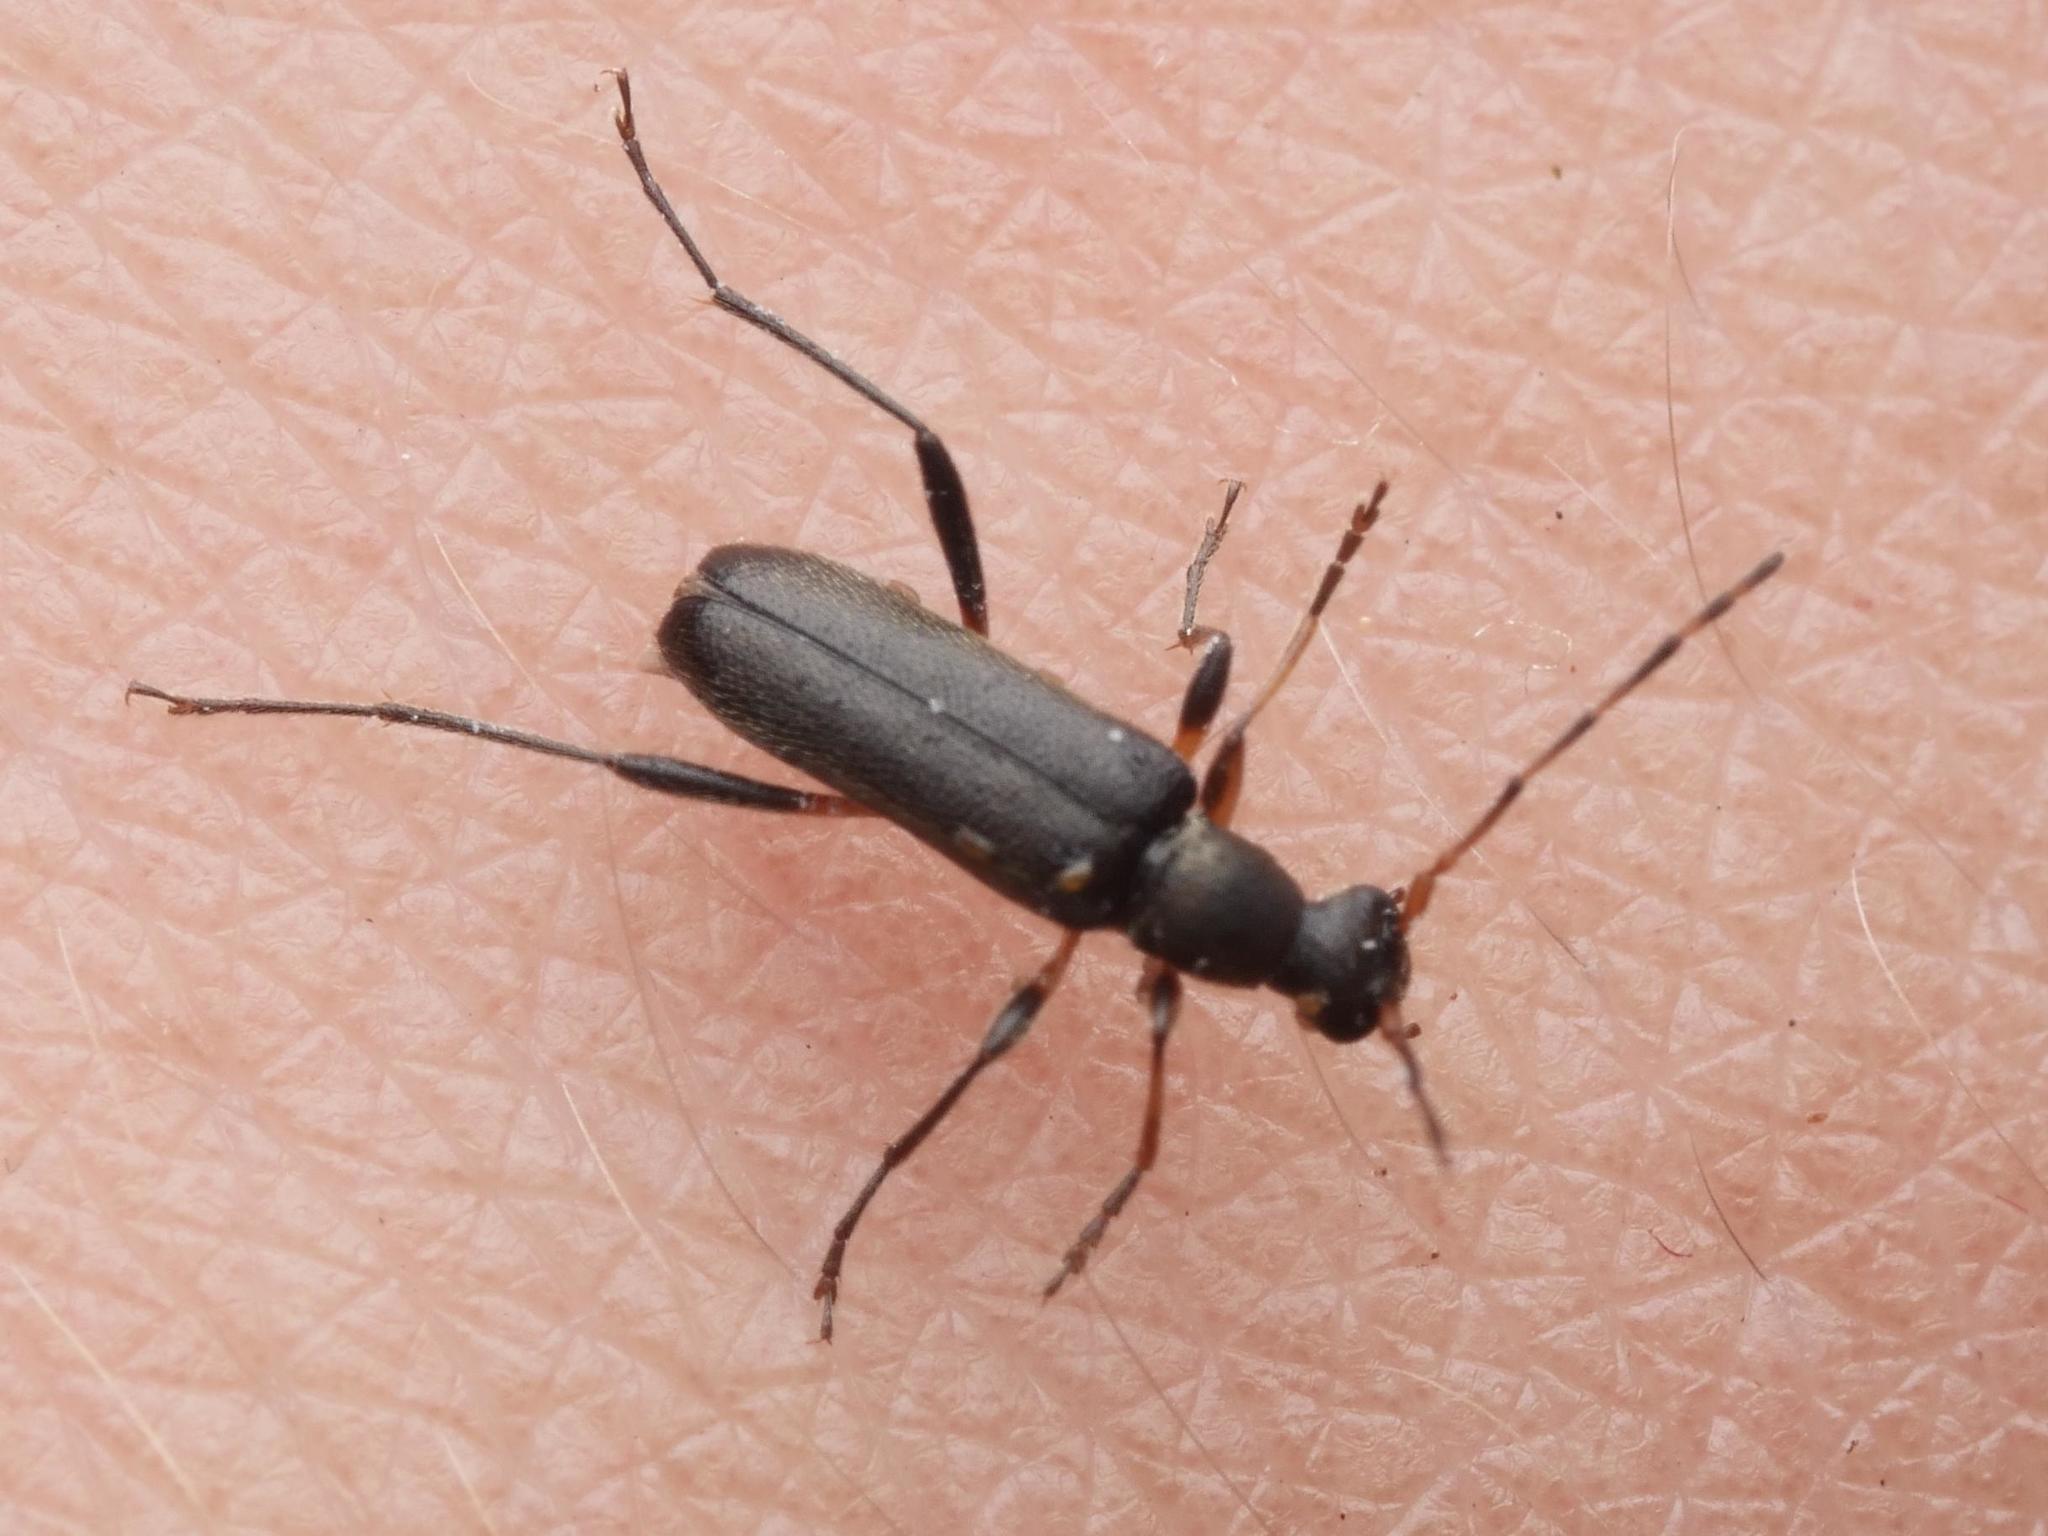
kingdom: Animalia
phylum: Arthropoda
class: Insecta
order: Coleoptera
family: Cerambycidae
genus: Grammoptera
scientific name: Grammoptera ruficornis
